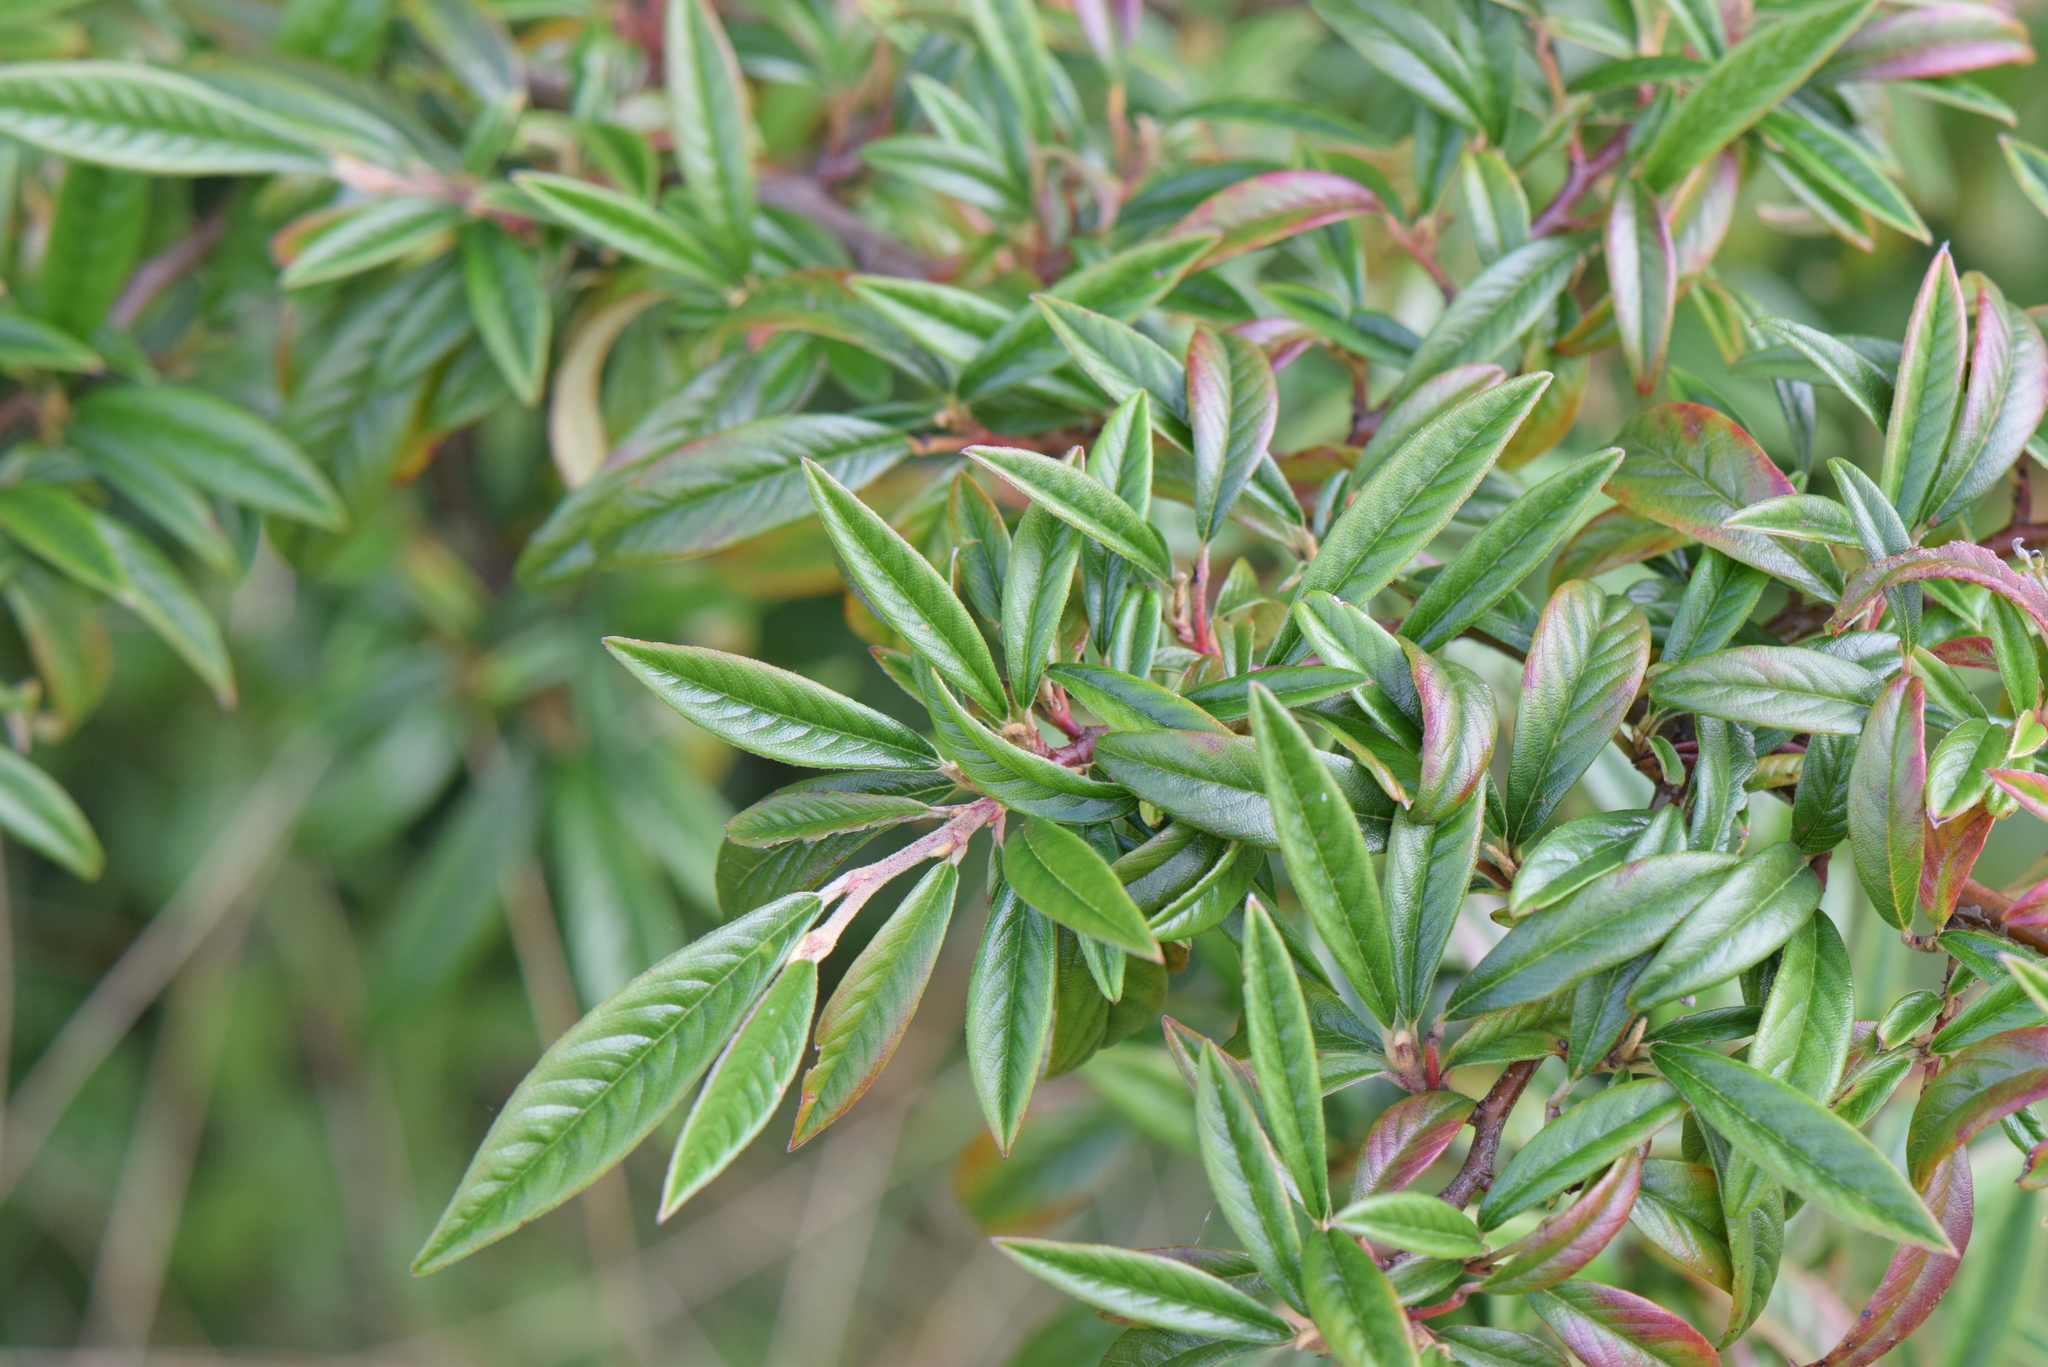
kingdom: Plantae
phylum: Tracheophyta
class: Magnoliopsida
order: Rosales
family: Rosaceae
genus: Cotoneaster
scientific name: Cotoneaster salicifolius
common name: Willow-leaved cotoneaster
